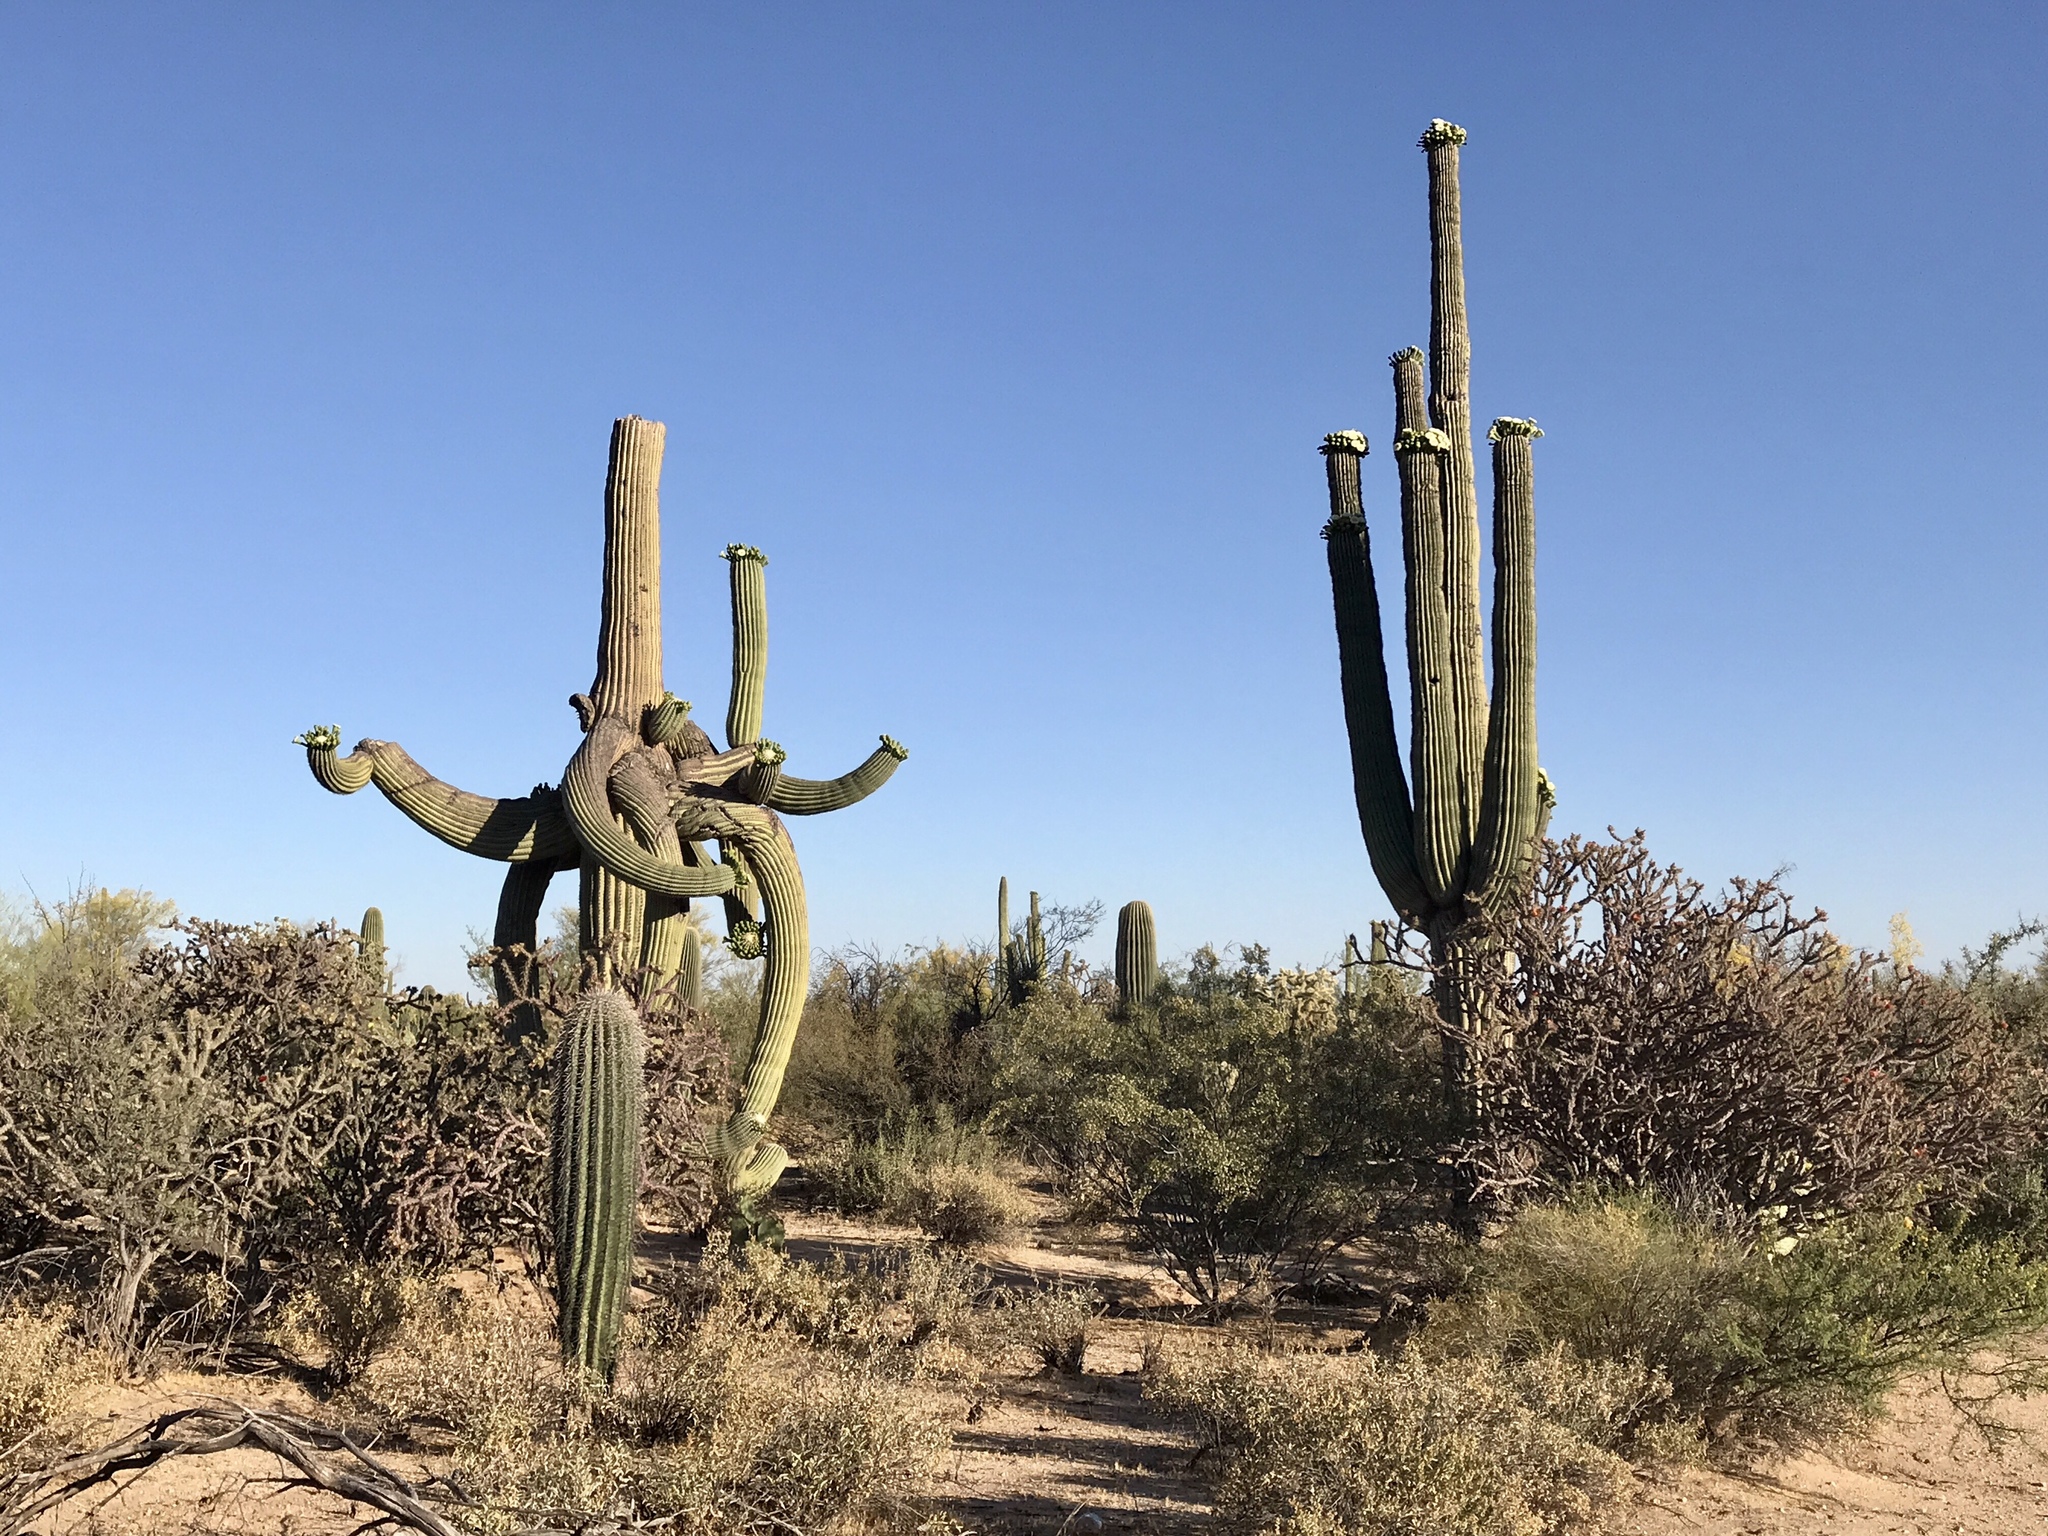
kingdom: Plantae
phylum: Tracheophyta
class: Magnoliopsida
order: Caryophyllales
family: Cactaceae
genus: Carnegiea
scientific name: Carnegiea gigantea
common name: Saguaro
